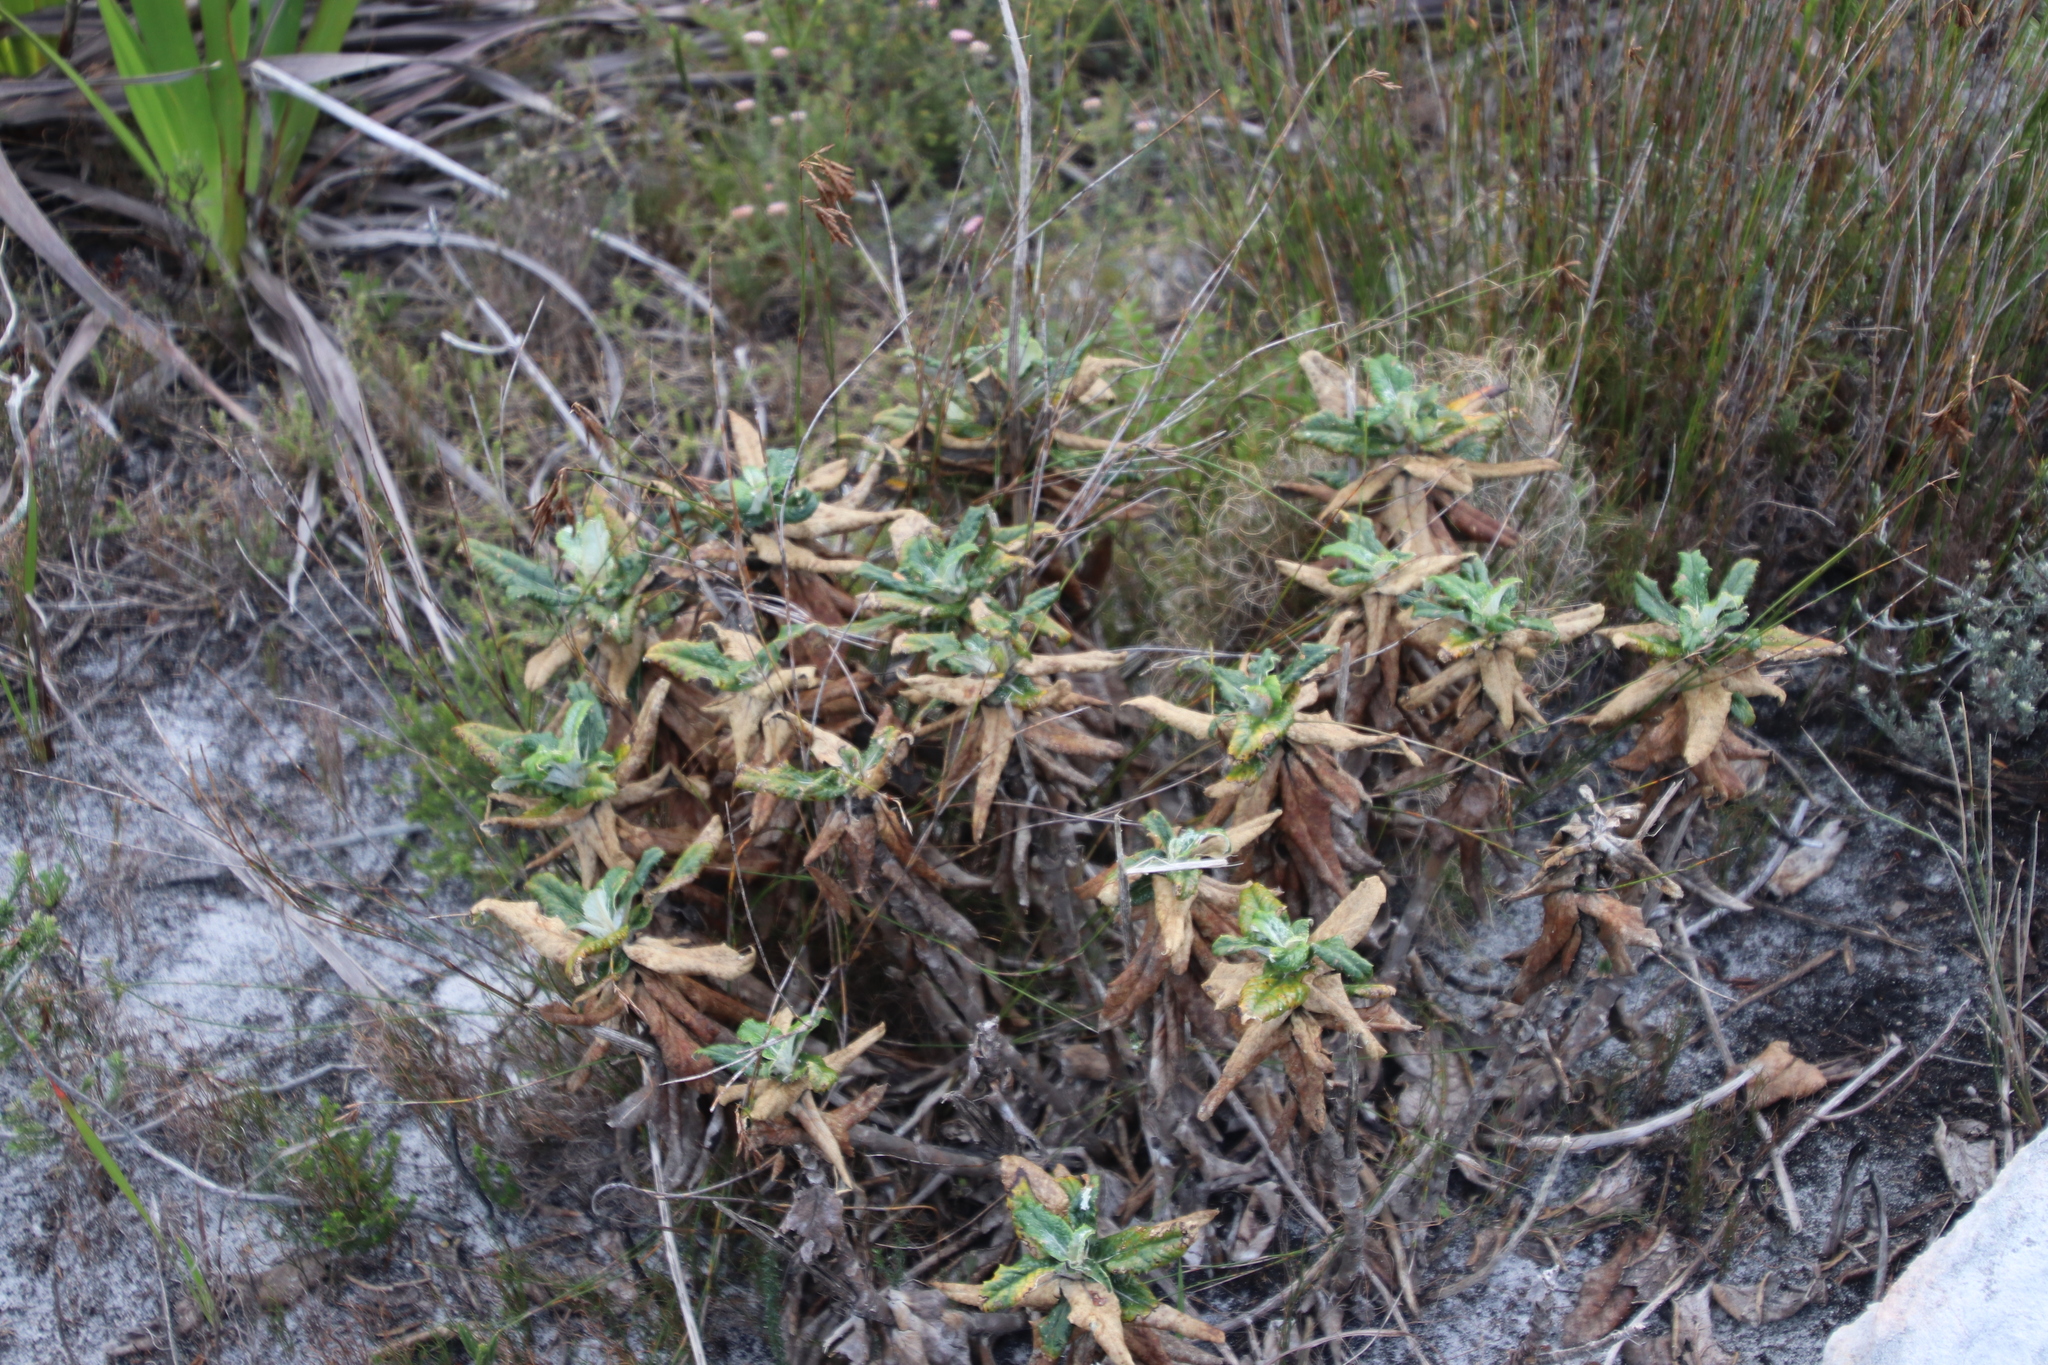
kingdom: Plantae
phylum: Tracheophyta
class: Magnoliopsida
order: Apiales
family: Apiaceae
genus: Hermas
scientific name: Hermas villosa
